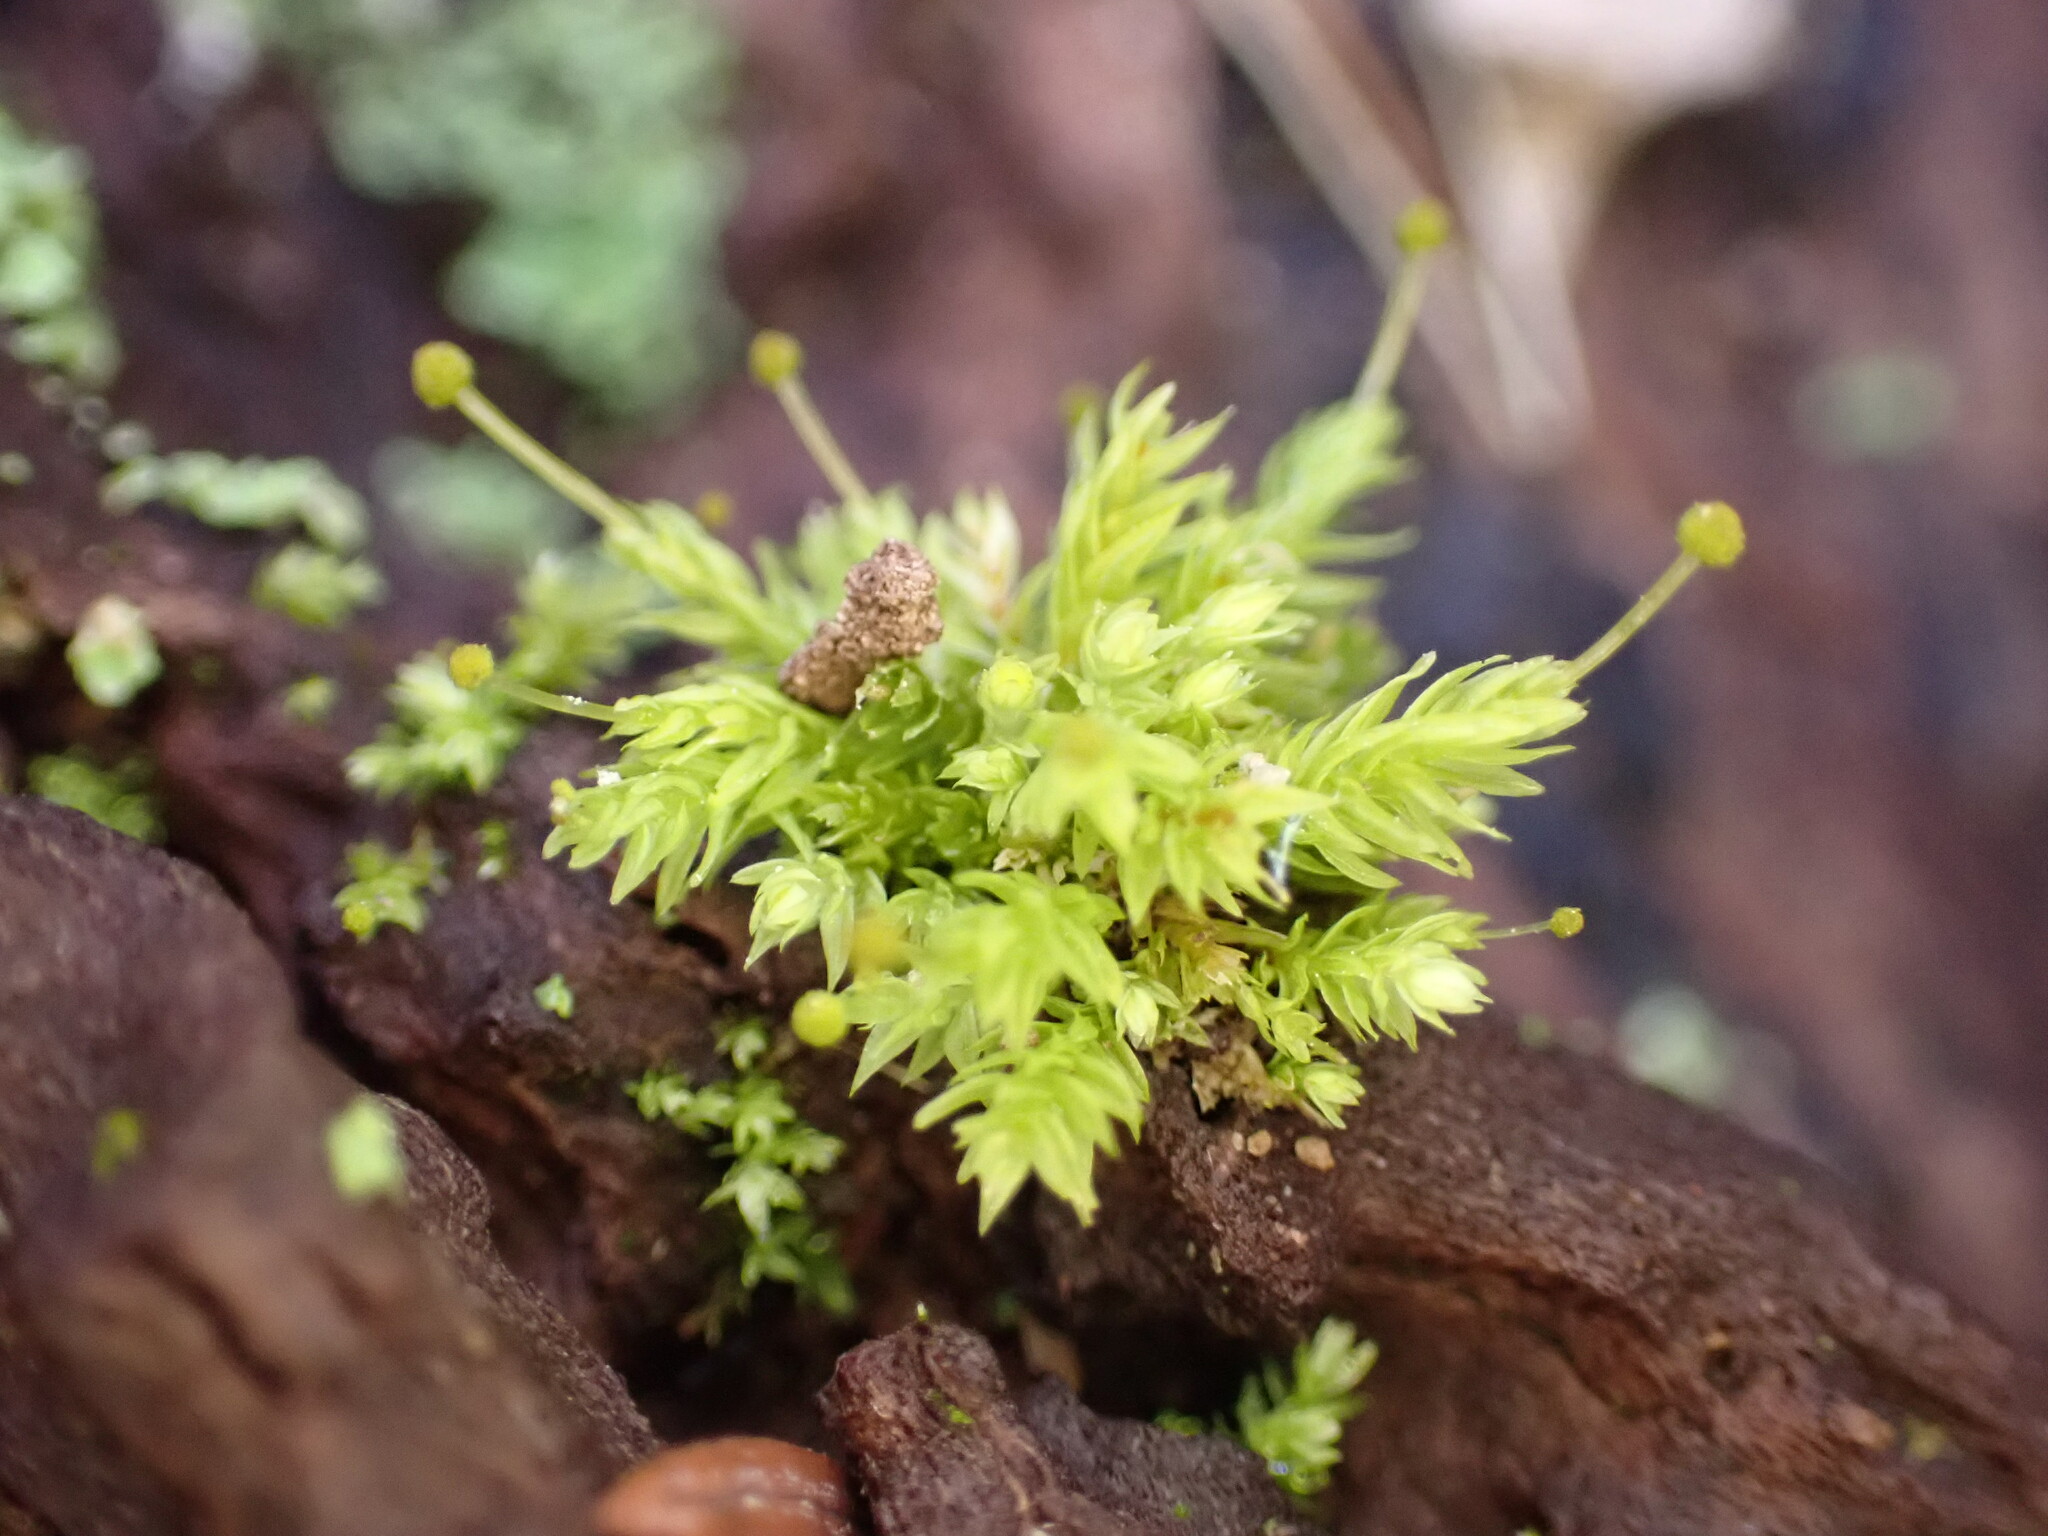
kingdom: Plantae
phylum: Bryophyta
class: Bryopsida
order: Aulacomniales
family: Aulacomniaceae
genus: Aulacomnium
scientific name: Aulacomnium androgynum
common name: Little groove moss
